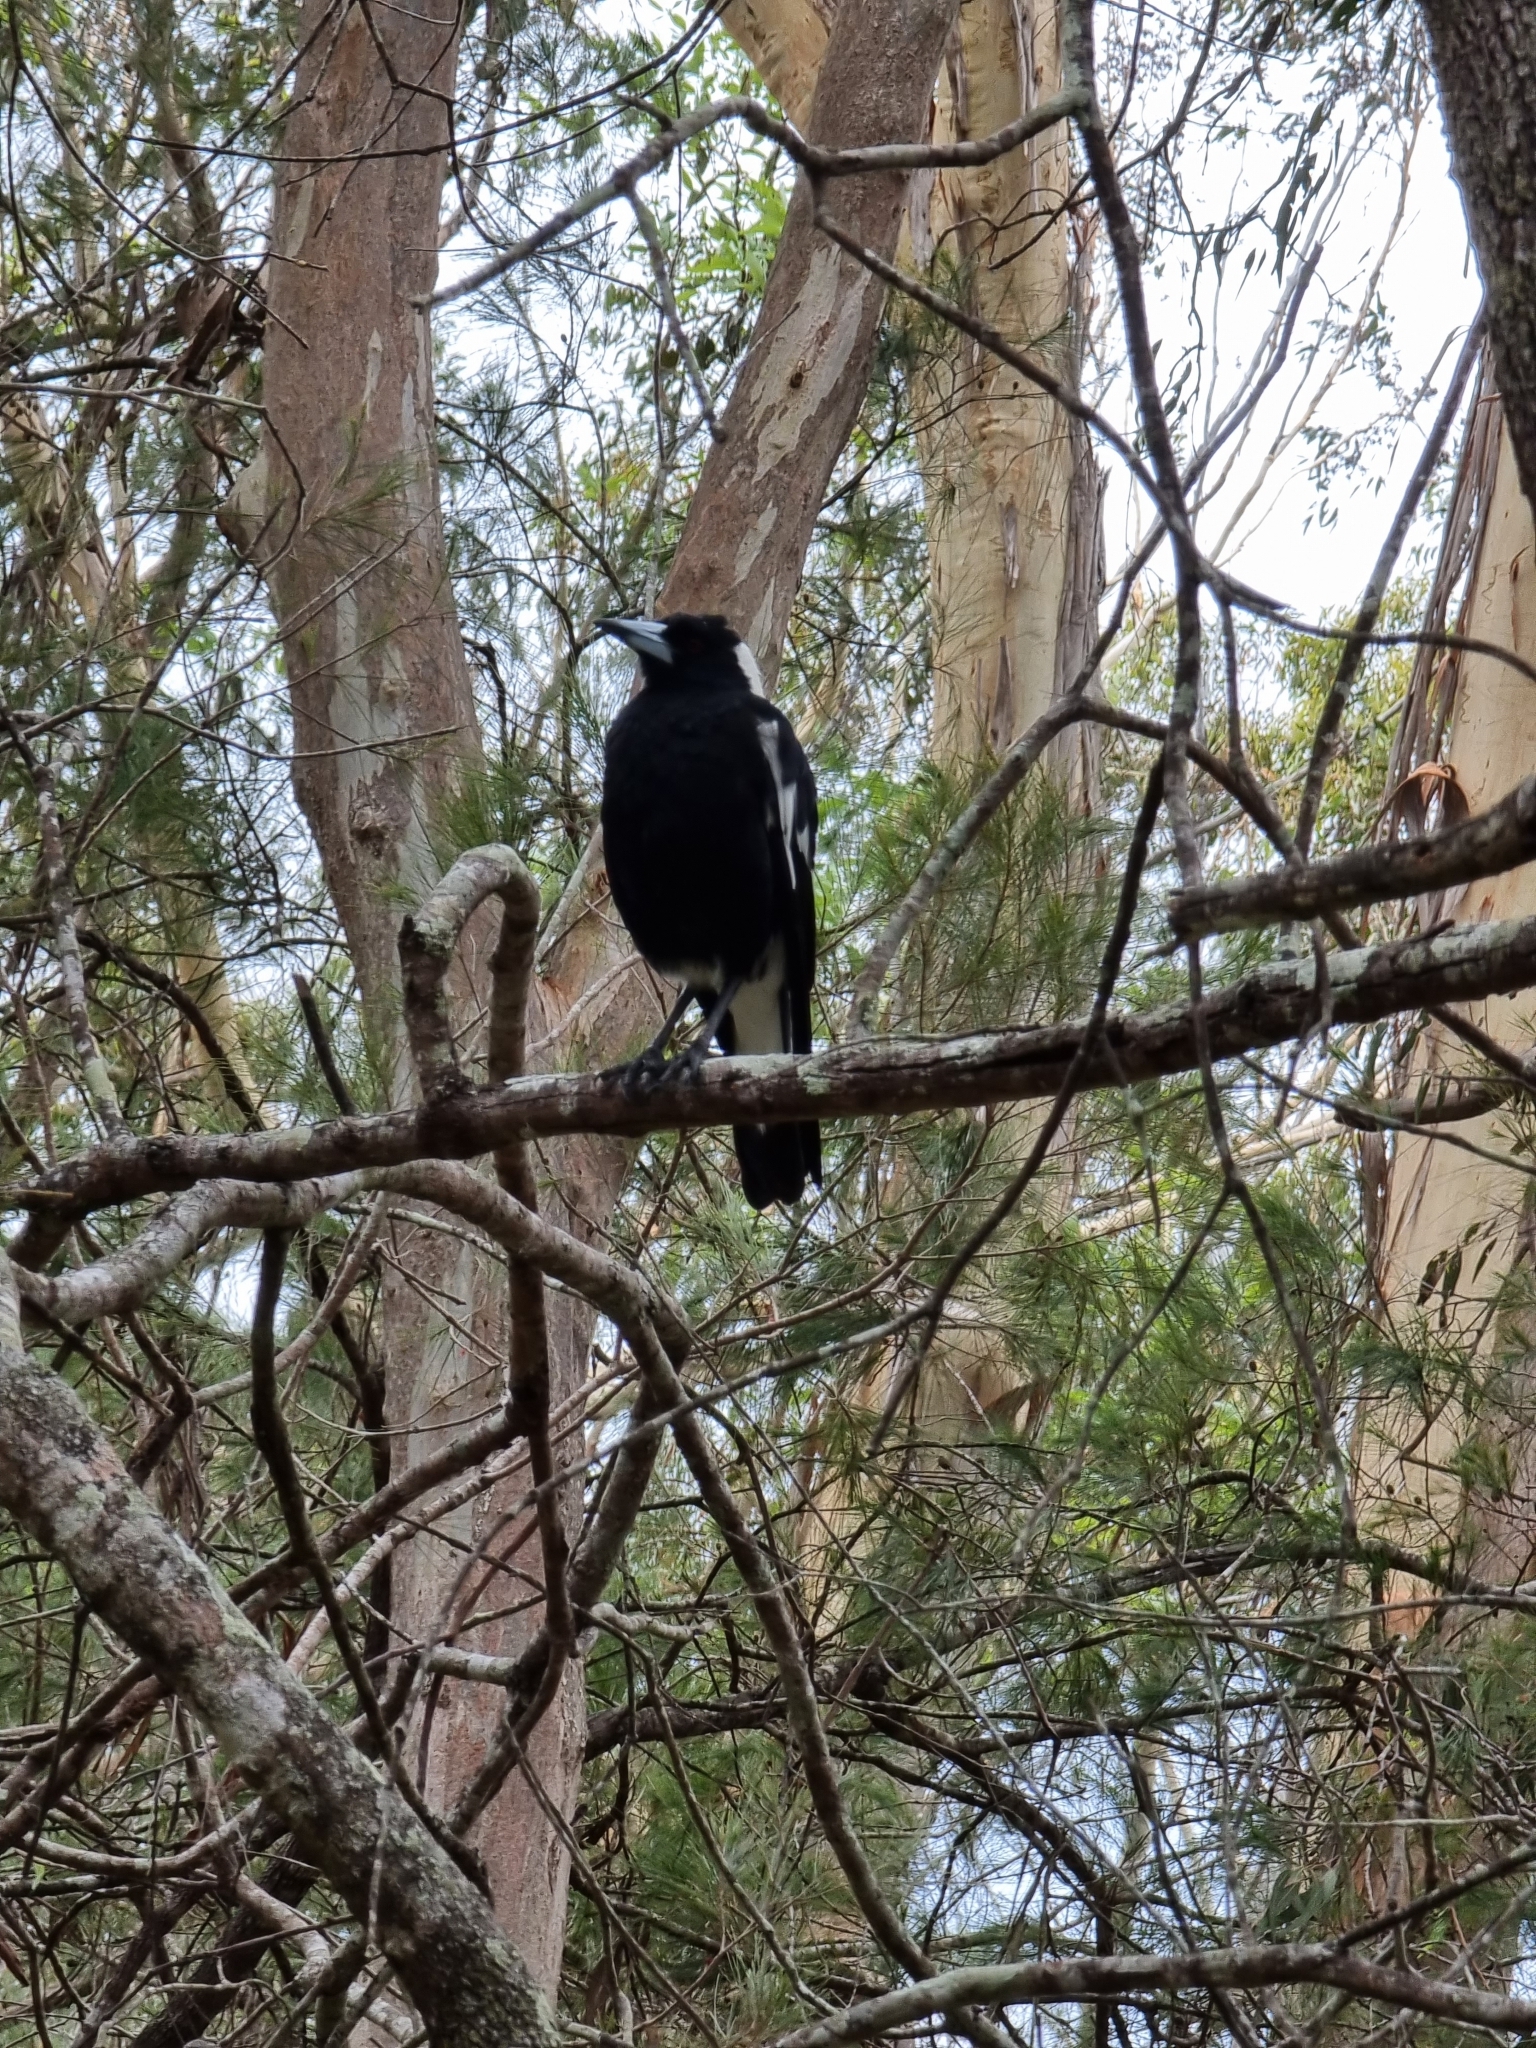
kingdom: Animalia
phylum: Chordata
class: Aves
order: Passeriformes
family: Cracticidae
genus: Gymnorhina
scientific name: Gymnorhina tibicen
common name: Australian magpie
